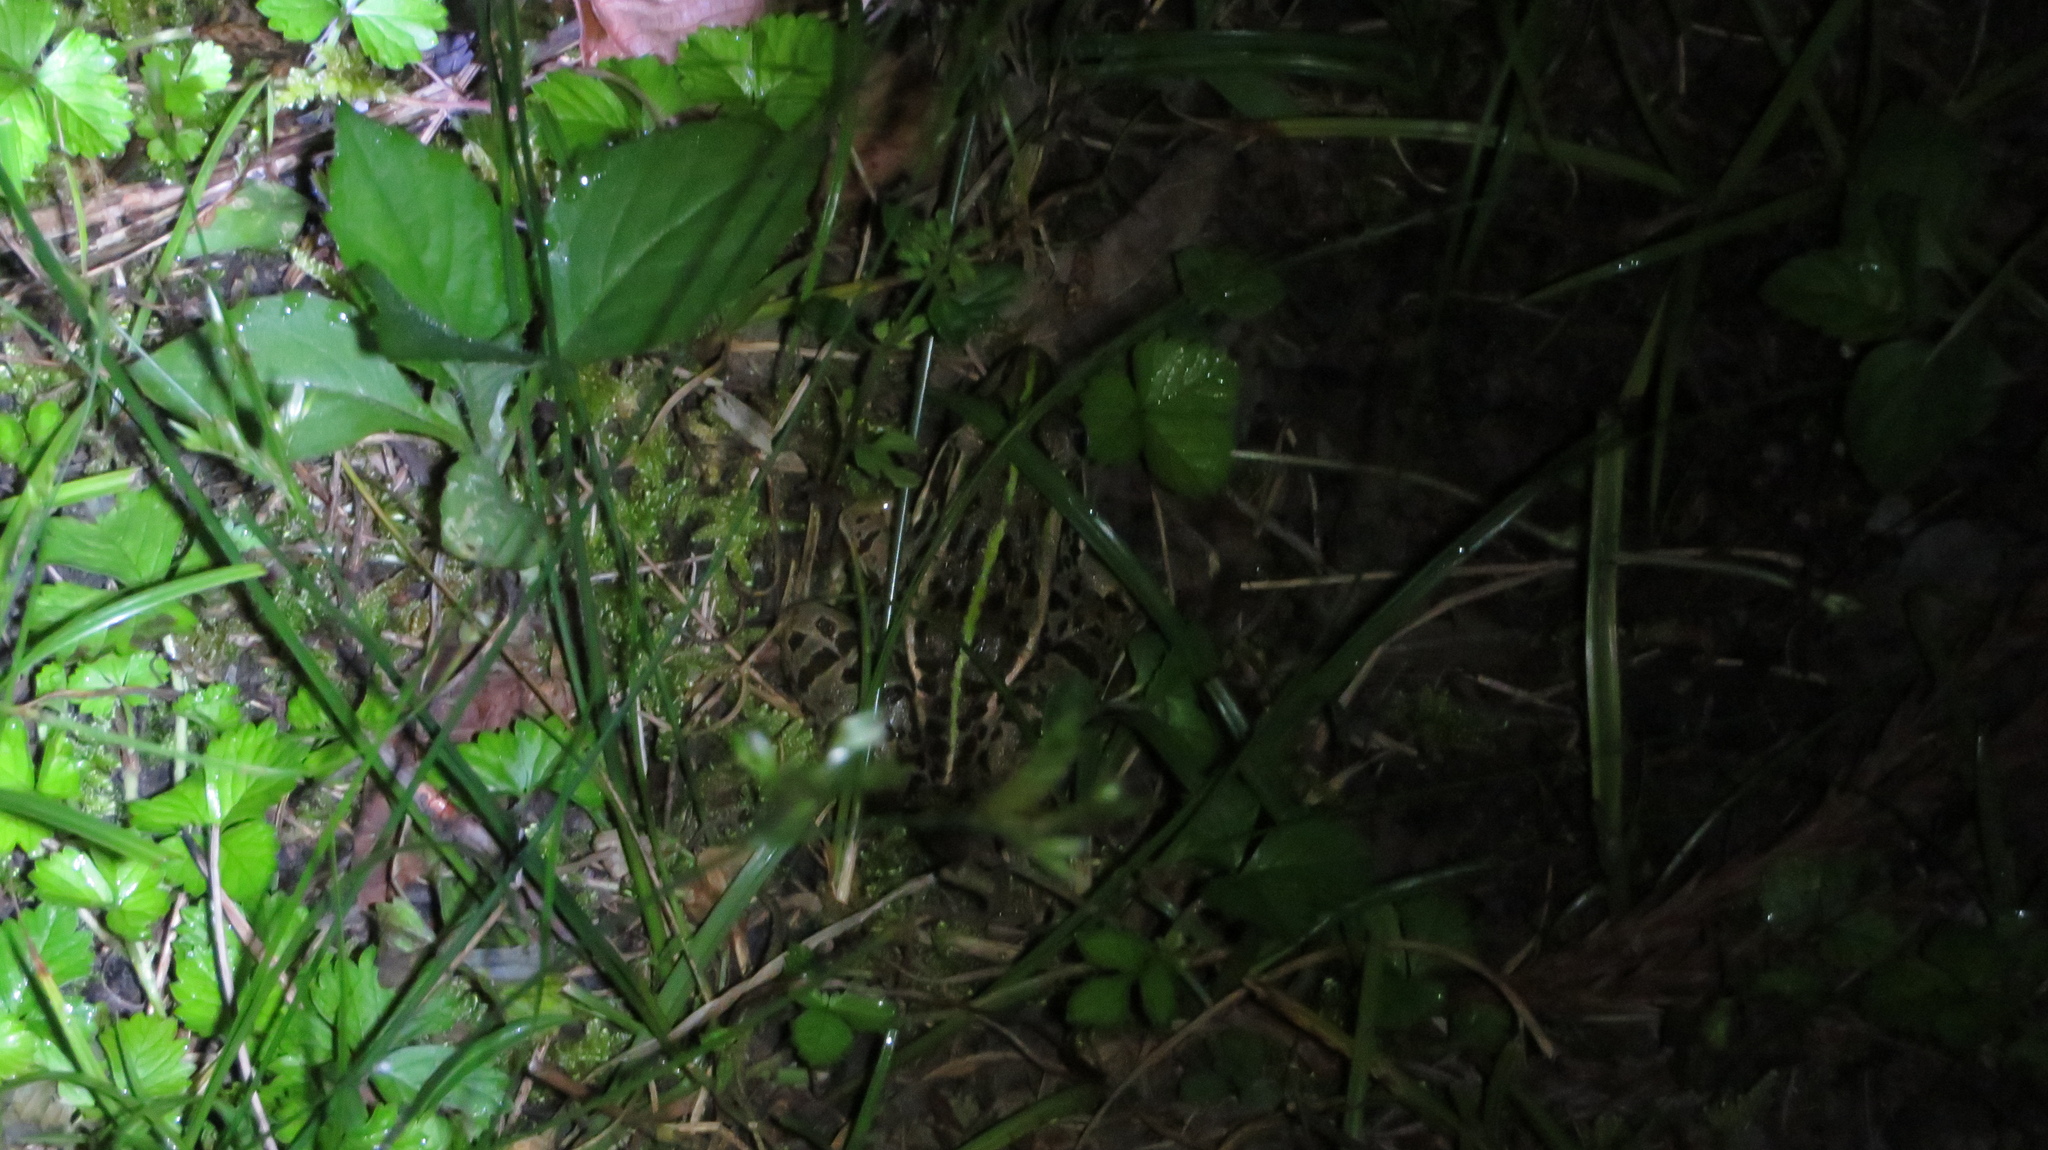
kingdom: Animalia
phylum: Chordata
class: Amphibia
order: Anura
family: Ranidae
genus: Pelophylax
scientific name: Pelophylax nigromaculatus
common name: Black-spotted pond frog
